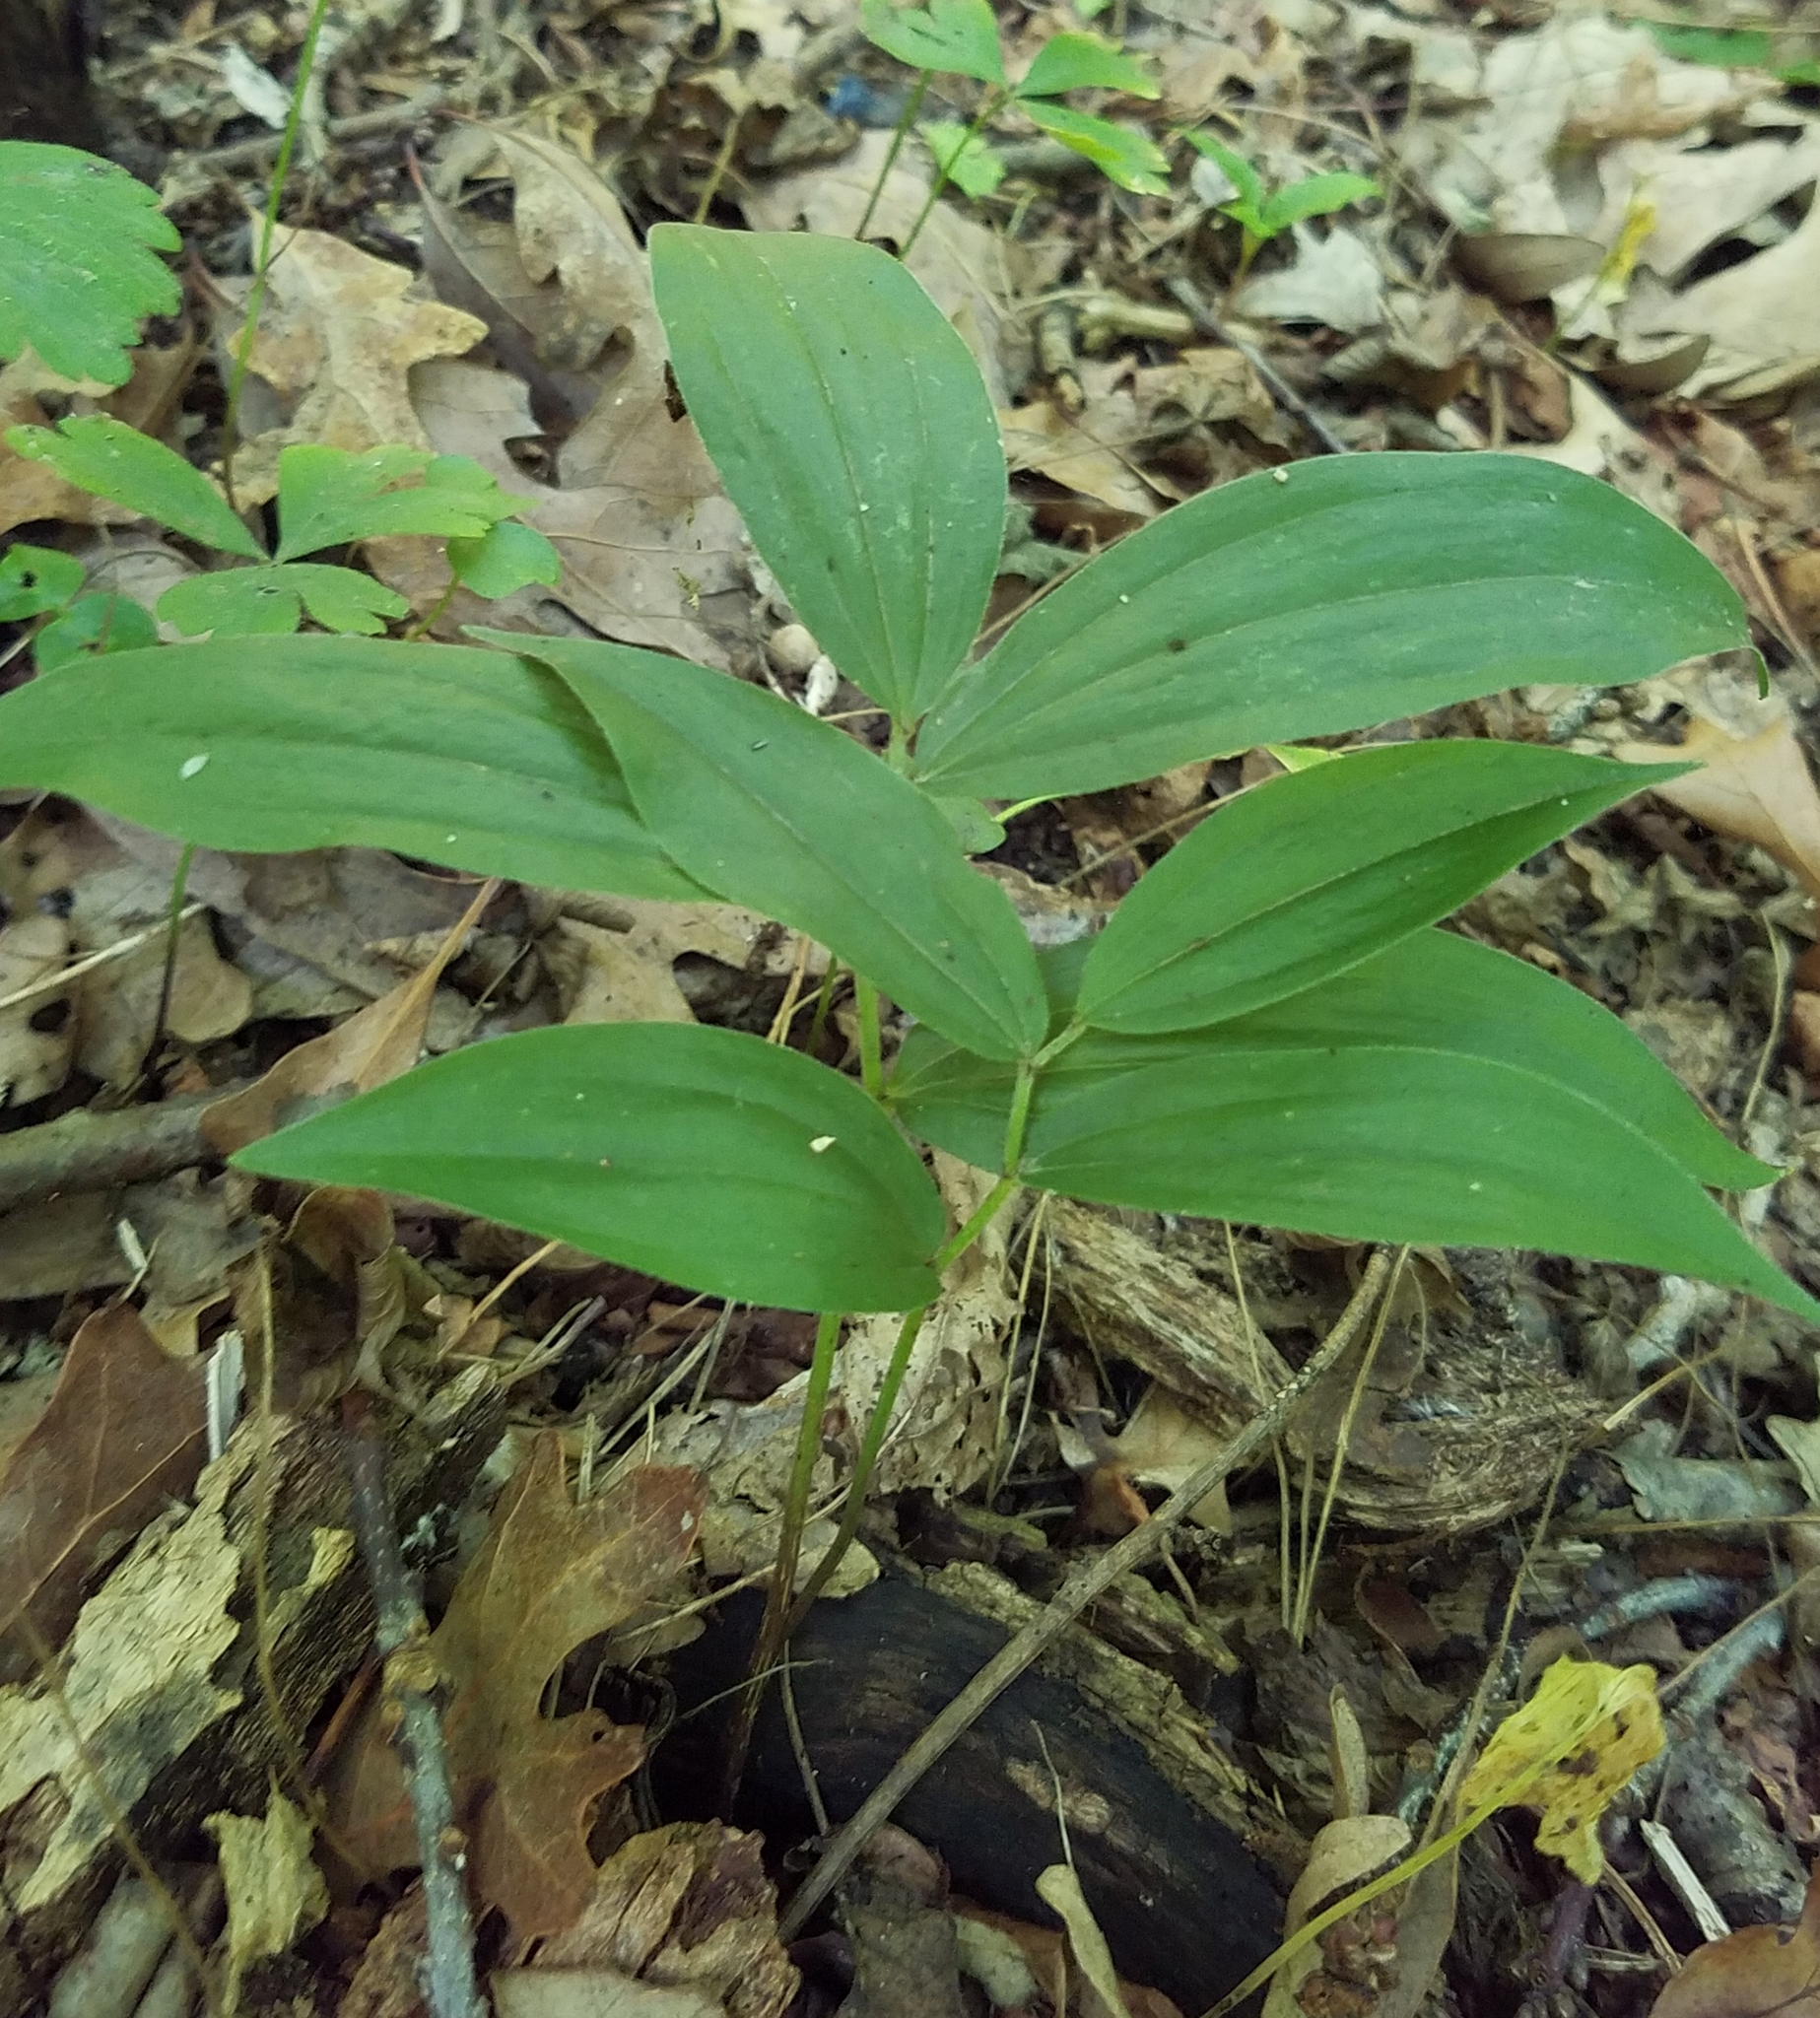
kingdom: Plantae
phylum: Tracheophyta
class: Liliopsida
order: Asparagales
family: Asparagaceae
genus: Maianthemum
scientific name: Maianthemum racemosum
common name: False spikenard
